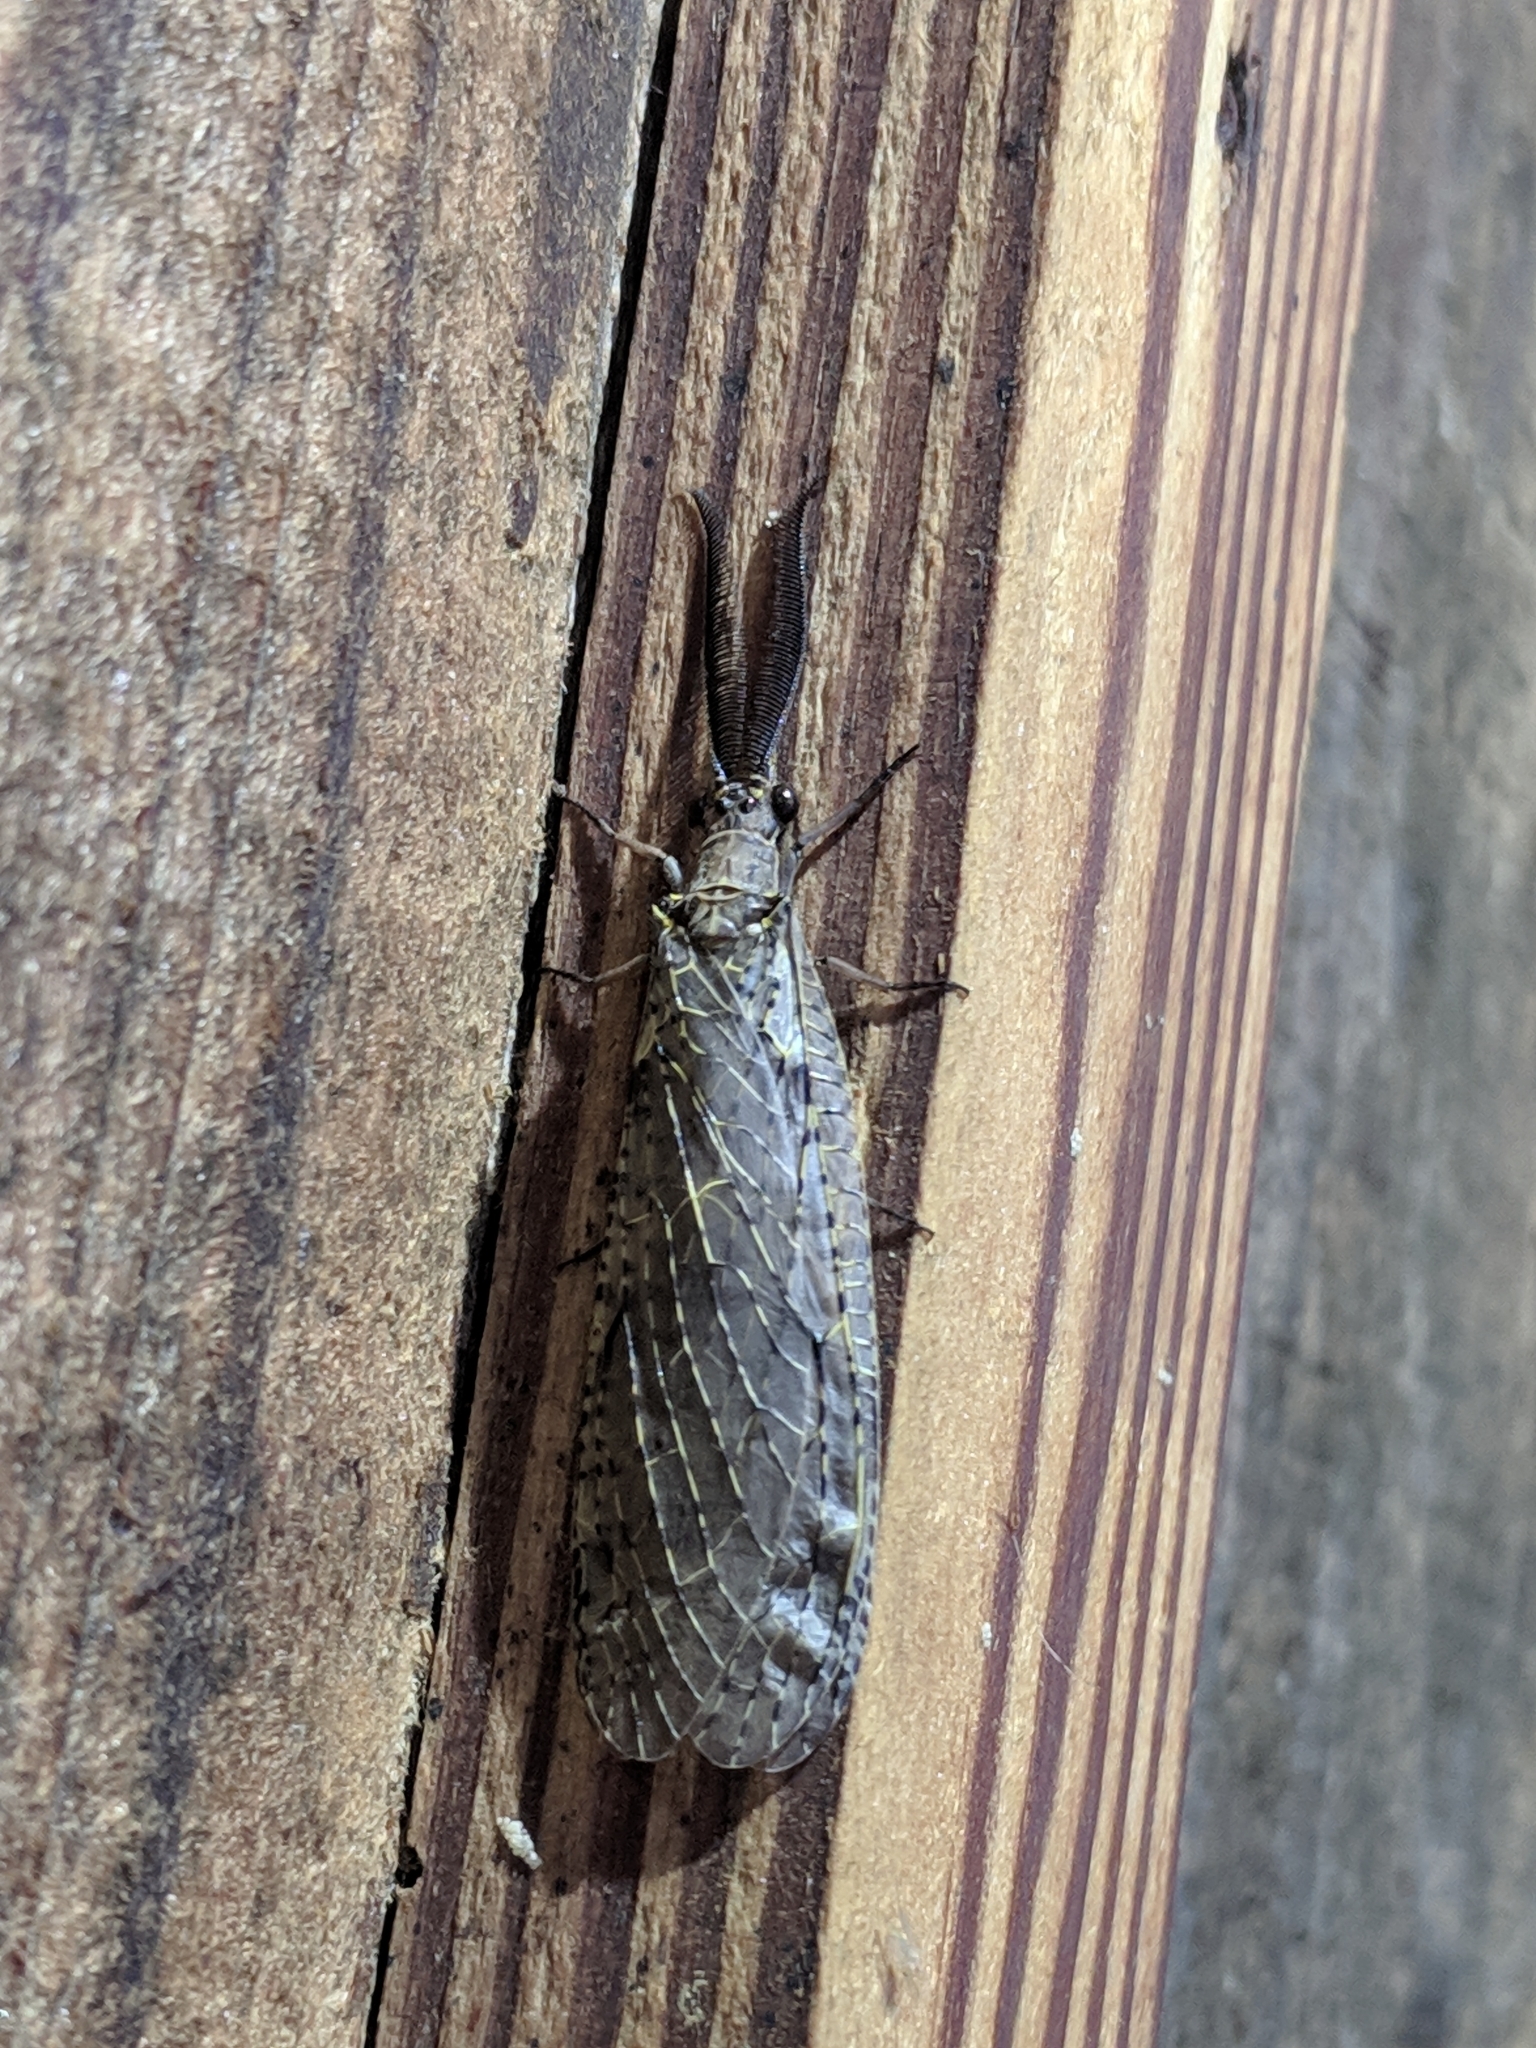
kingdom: Animalia
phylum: Arthropoda
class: Insecta
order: Megaloptera
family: Corydalidae
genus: Chauliodes
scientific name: Chauliodes rastricornis
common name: Spring fishfly
